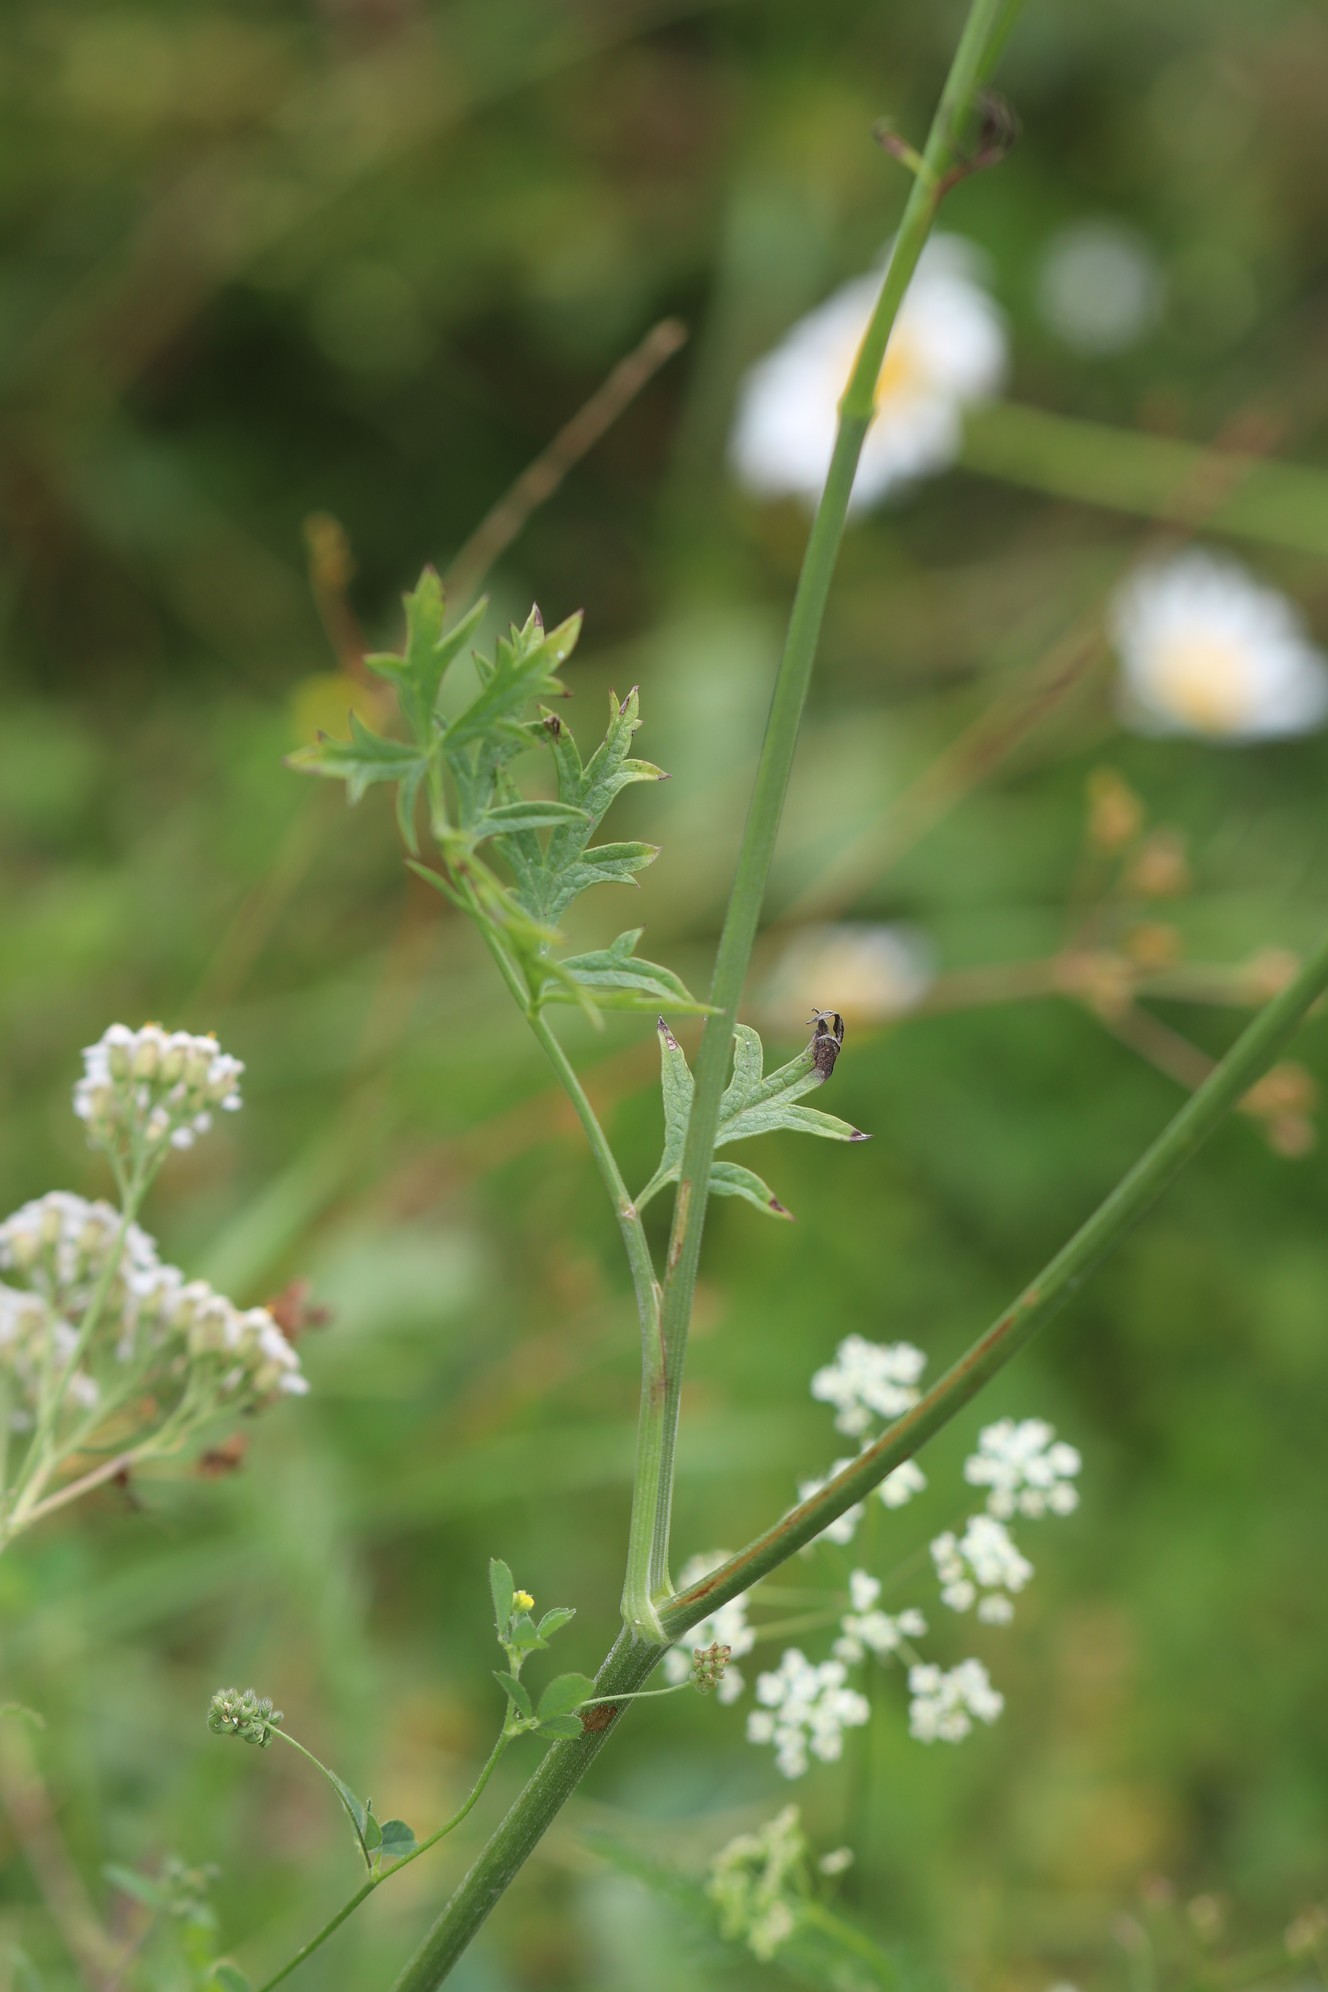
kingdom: Plantae
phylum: Tracheophyta
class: Magnoliopsida
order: Apiales
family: Apiaceae
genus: Pimpinella
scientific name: Pimpinella saxifraga
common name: Burnet-saxifrage
